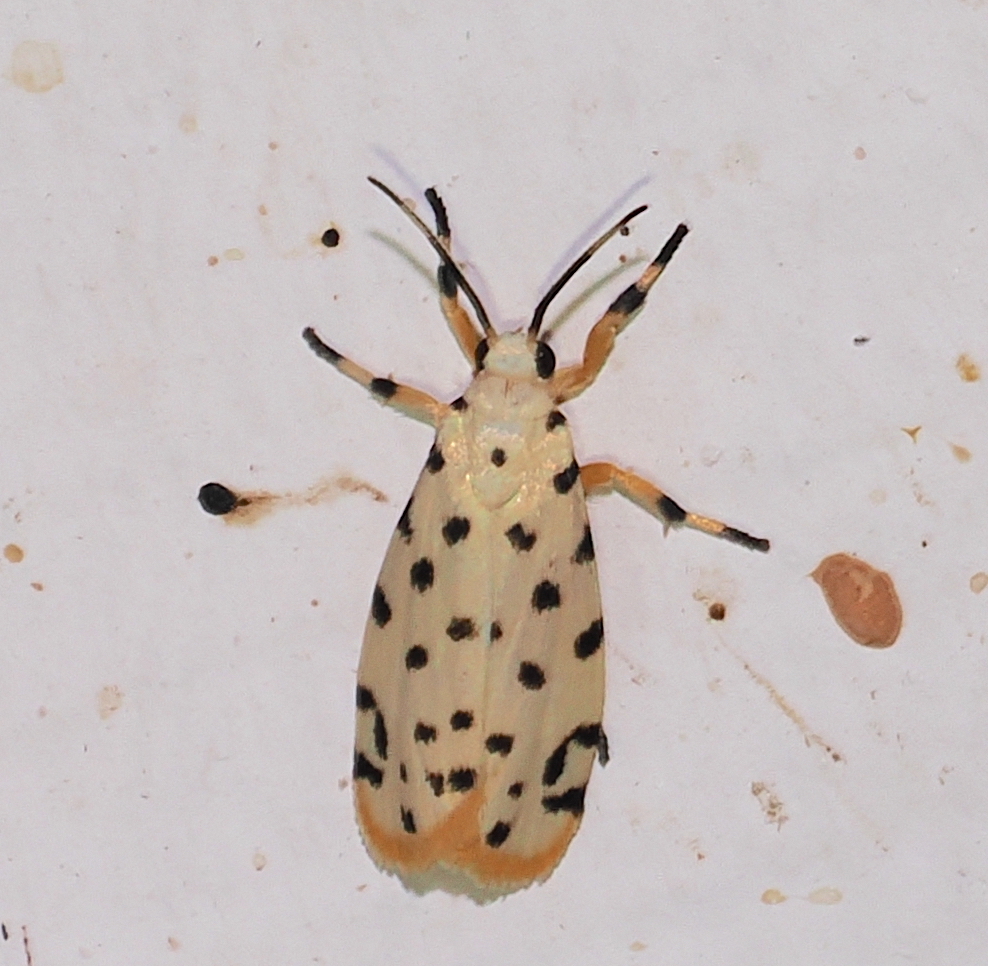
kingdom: Animalia
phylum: Arthropoda
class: Insecta
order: Lepidoptera
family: Erebidae
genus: Epeiromulona
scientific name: Epeiromulona hamata
